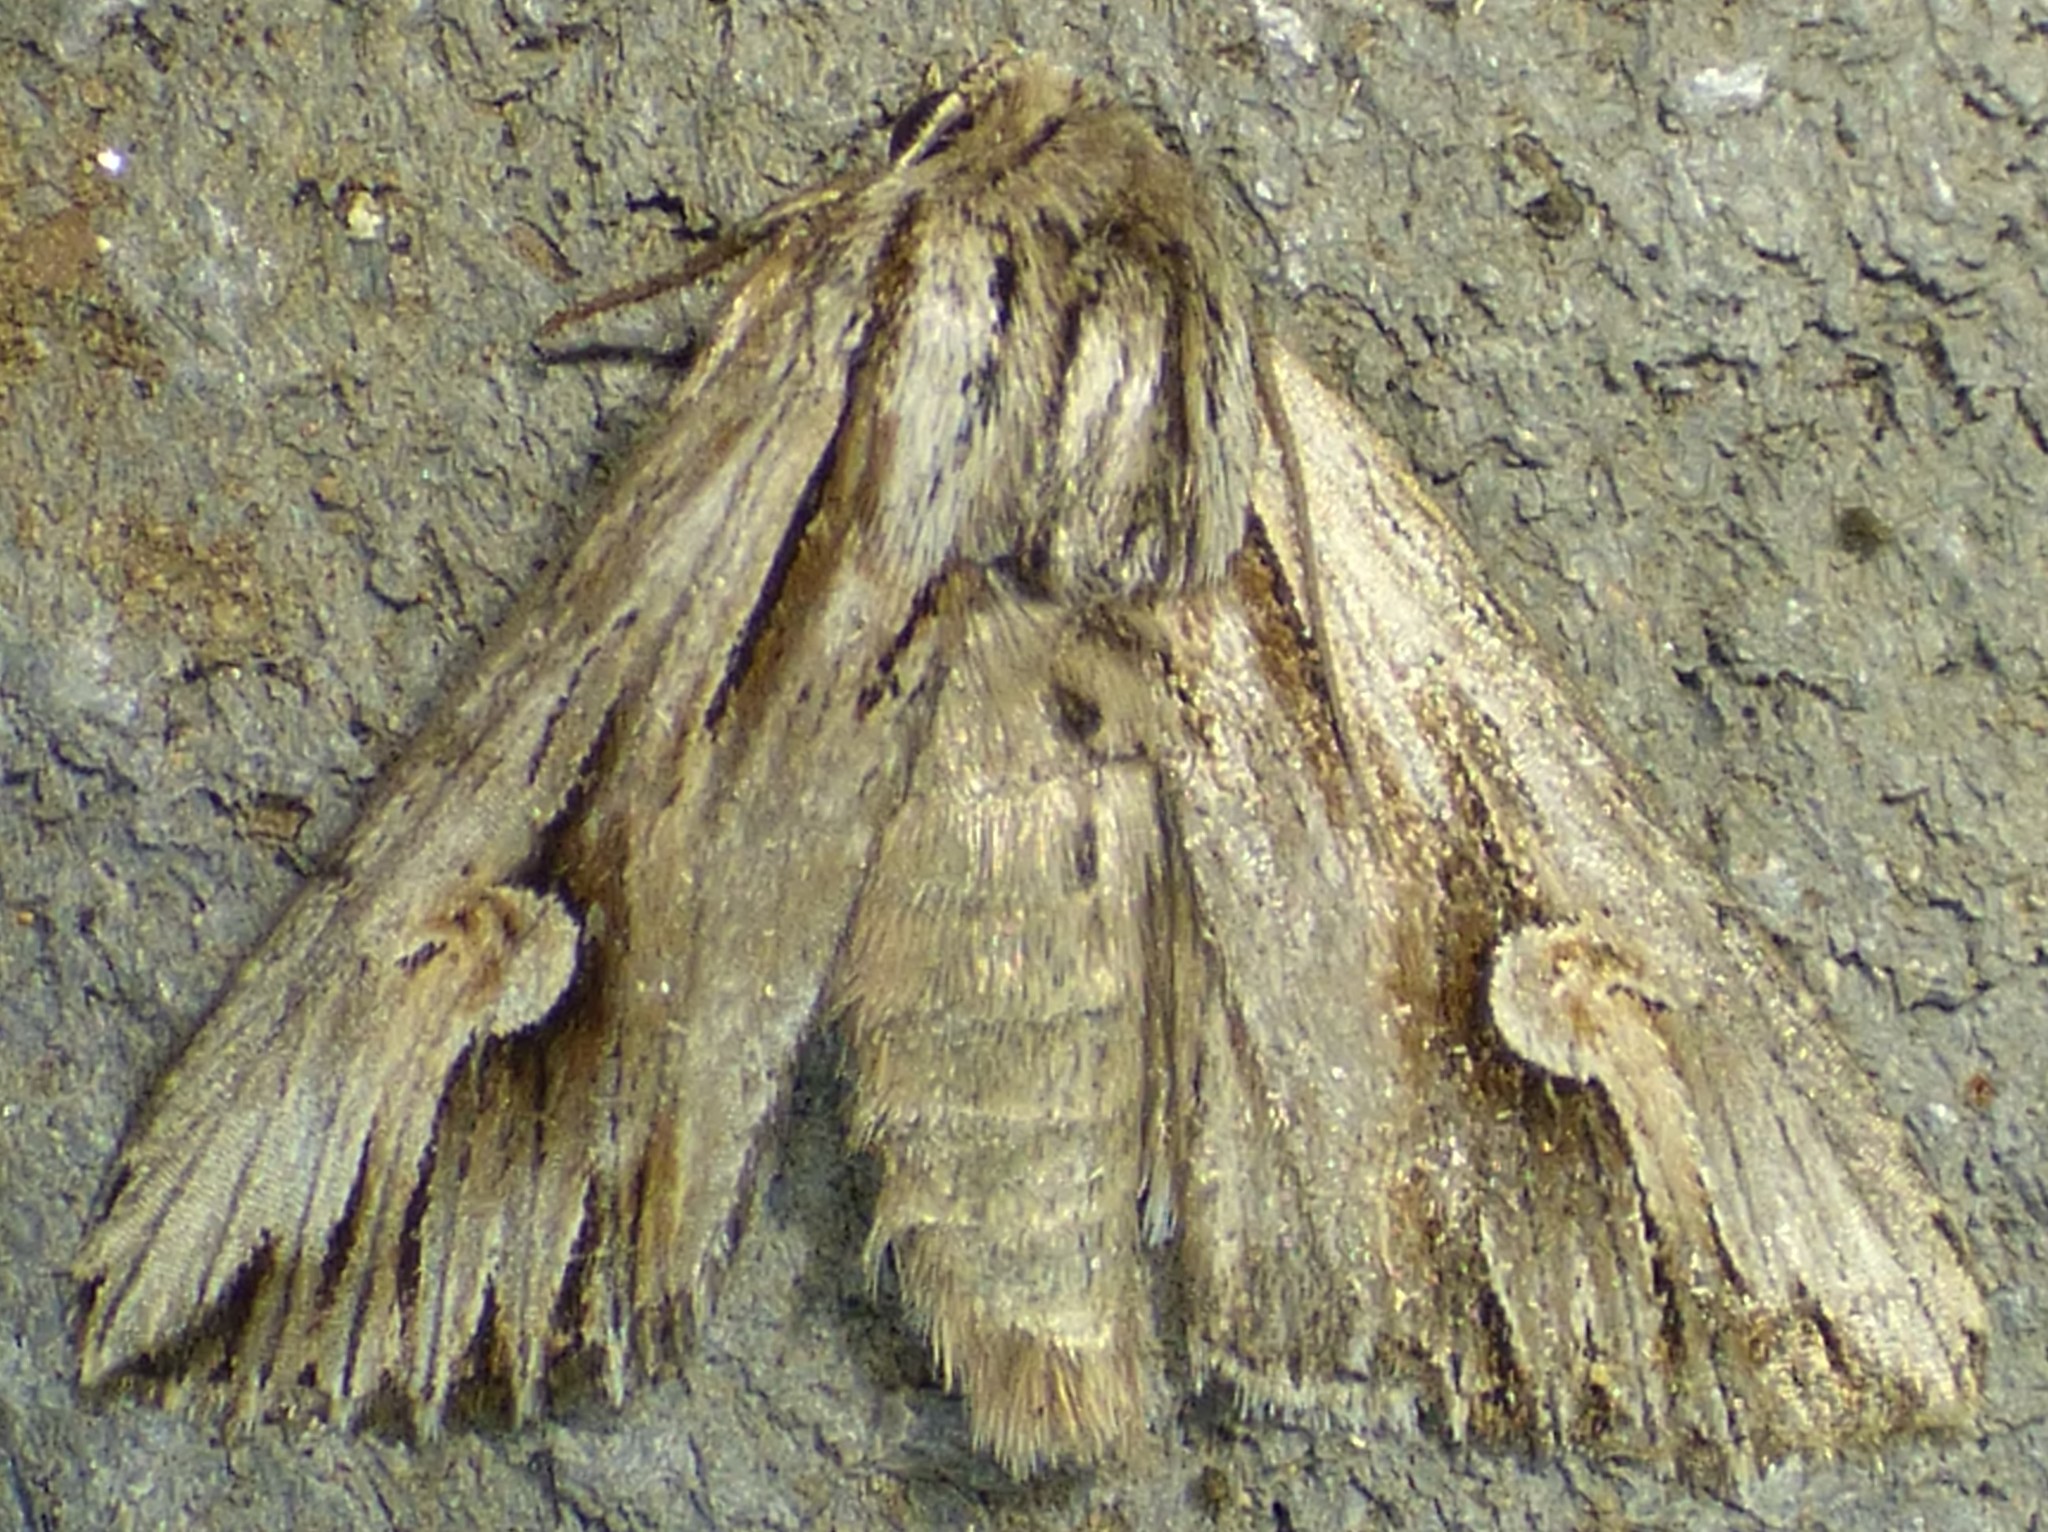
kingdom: Animalia
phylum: Arthropoda
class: Insecta
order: Lepidoptera
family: Noctuidae
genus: Nedra
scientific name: Nedra ramosula
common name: Gray half-spot
